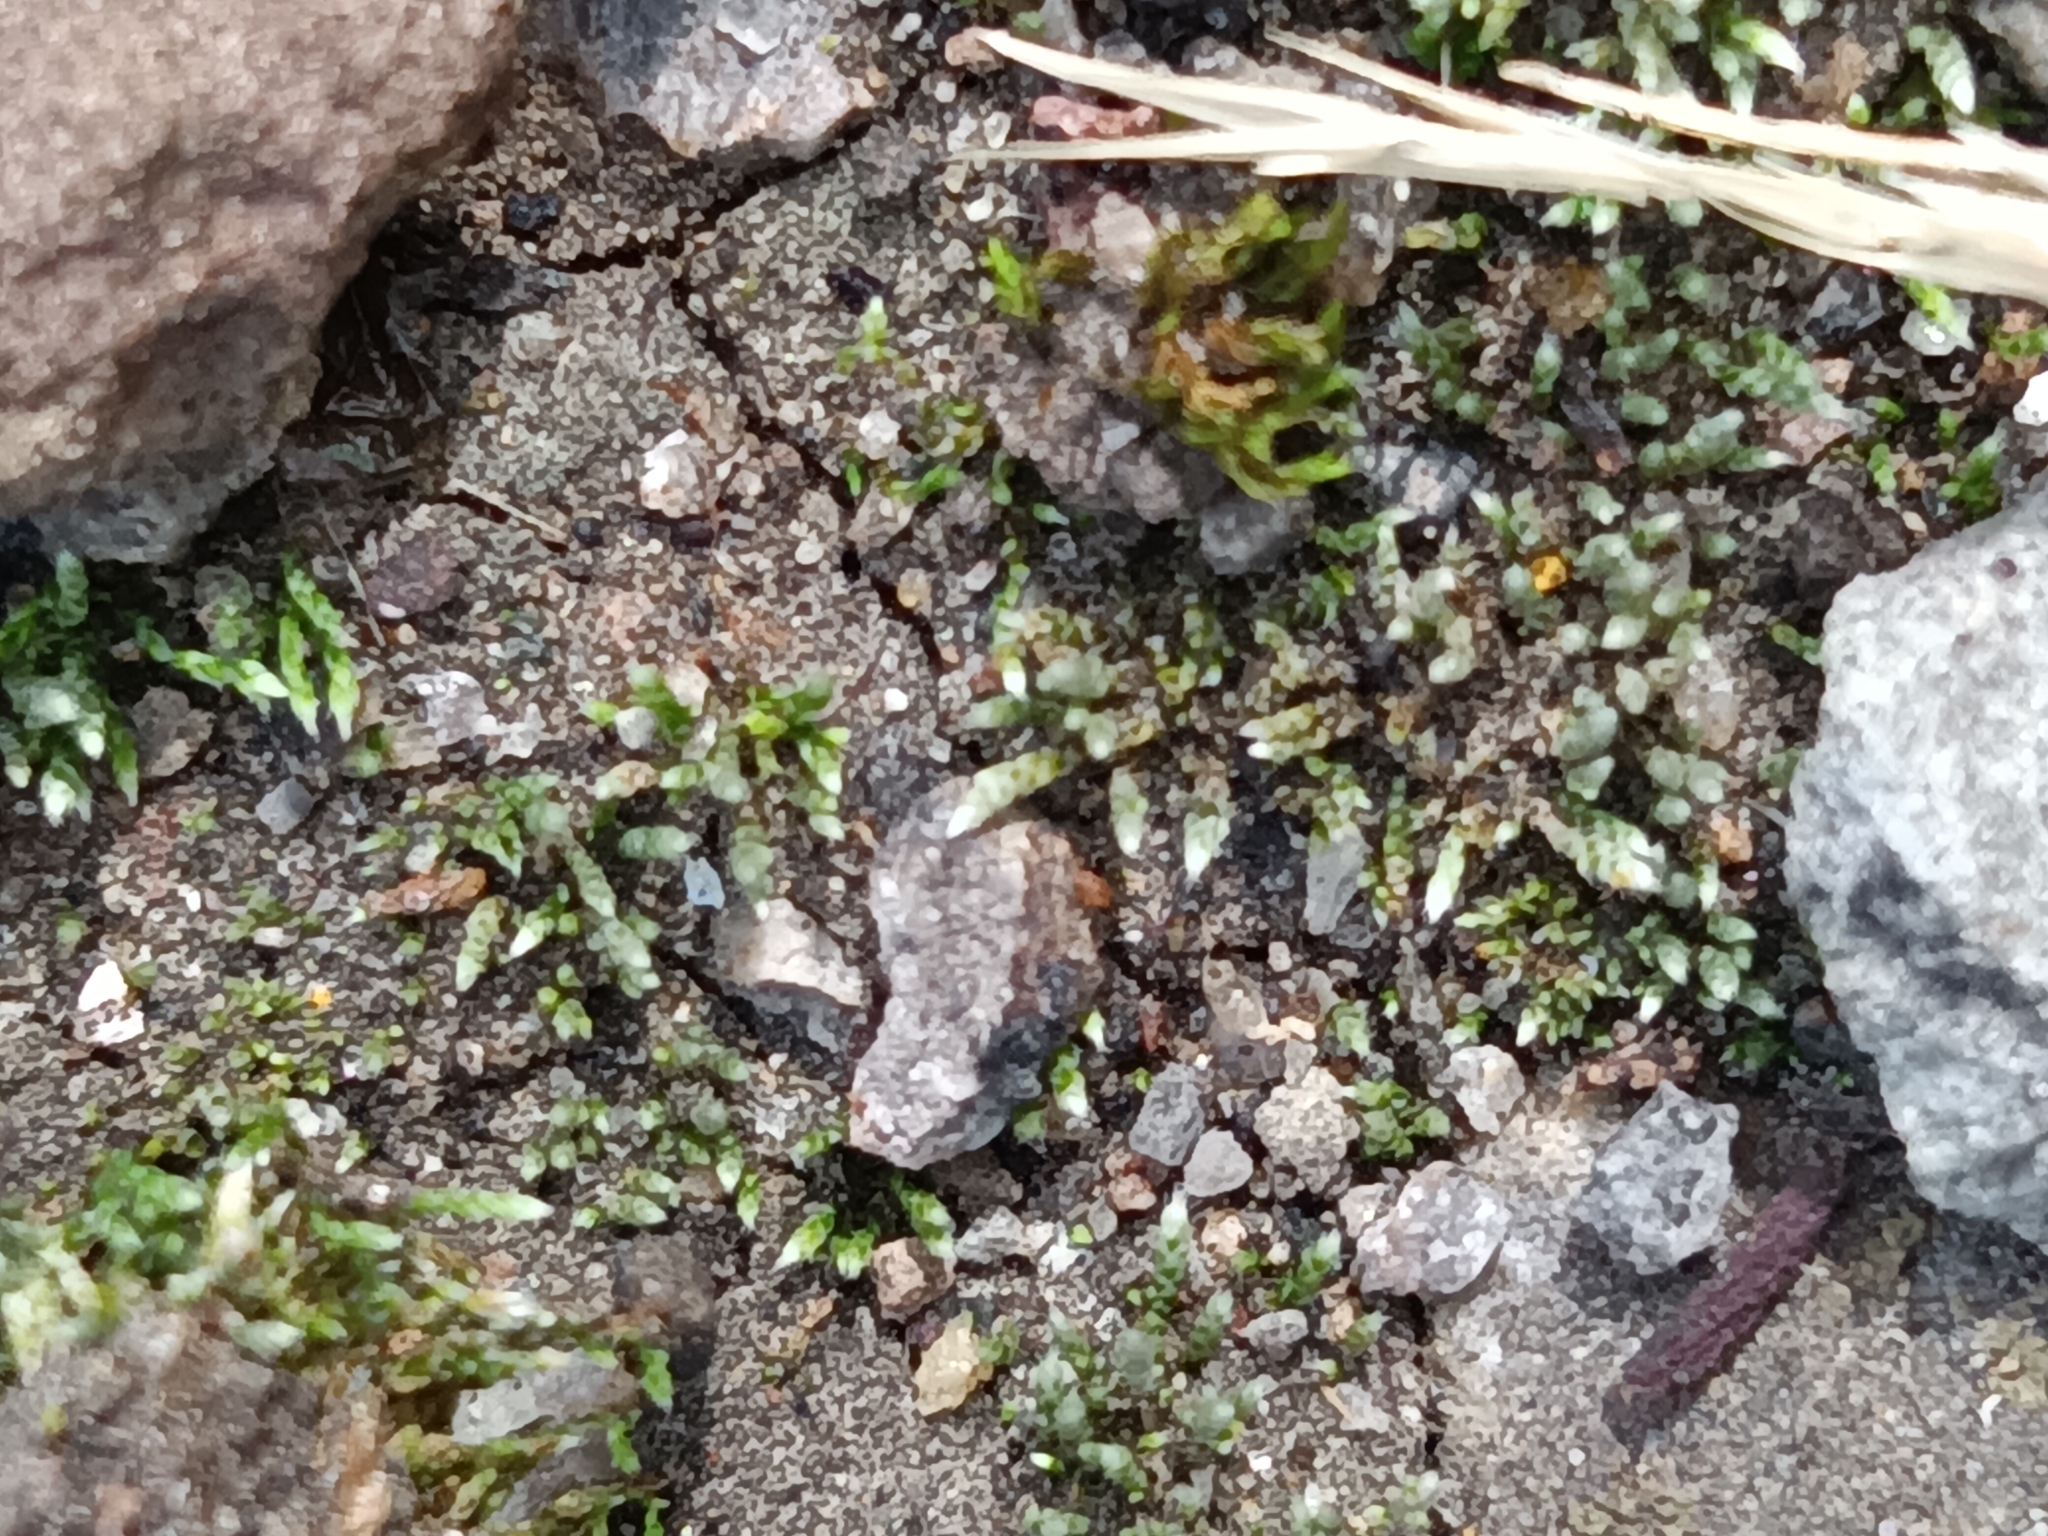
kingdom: Plantae
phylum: Bryophyta
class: Bryopsida
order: Bryales
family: Bryaceae
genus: Bryum
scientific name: Bryum argenteum
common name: Silver-moss
